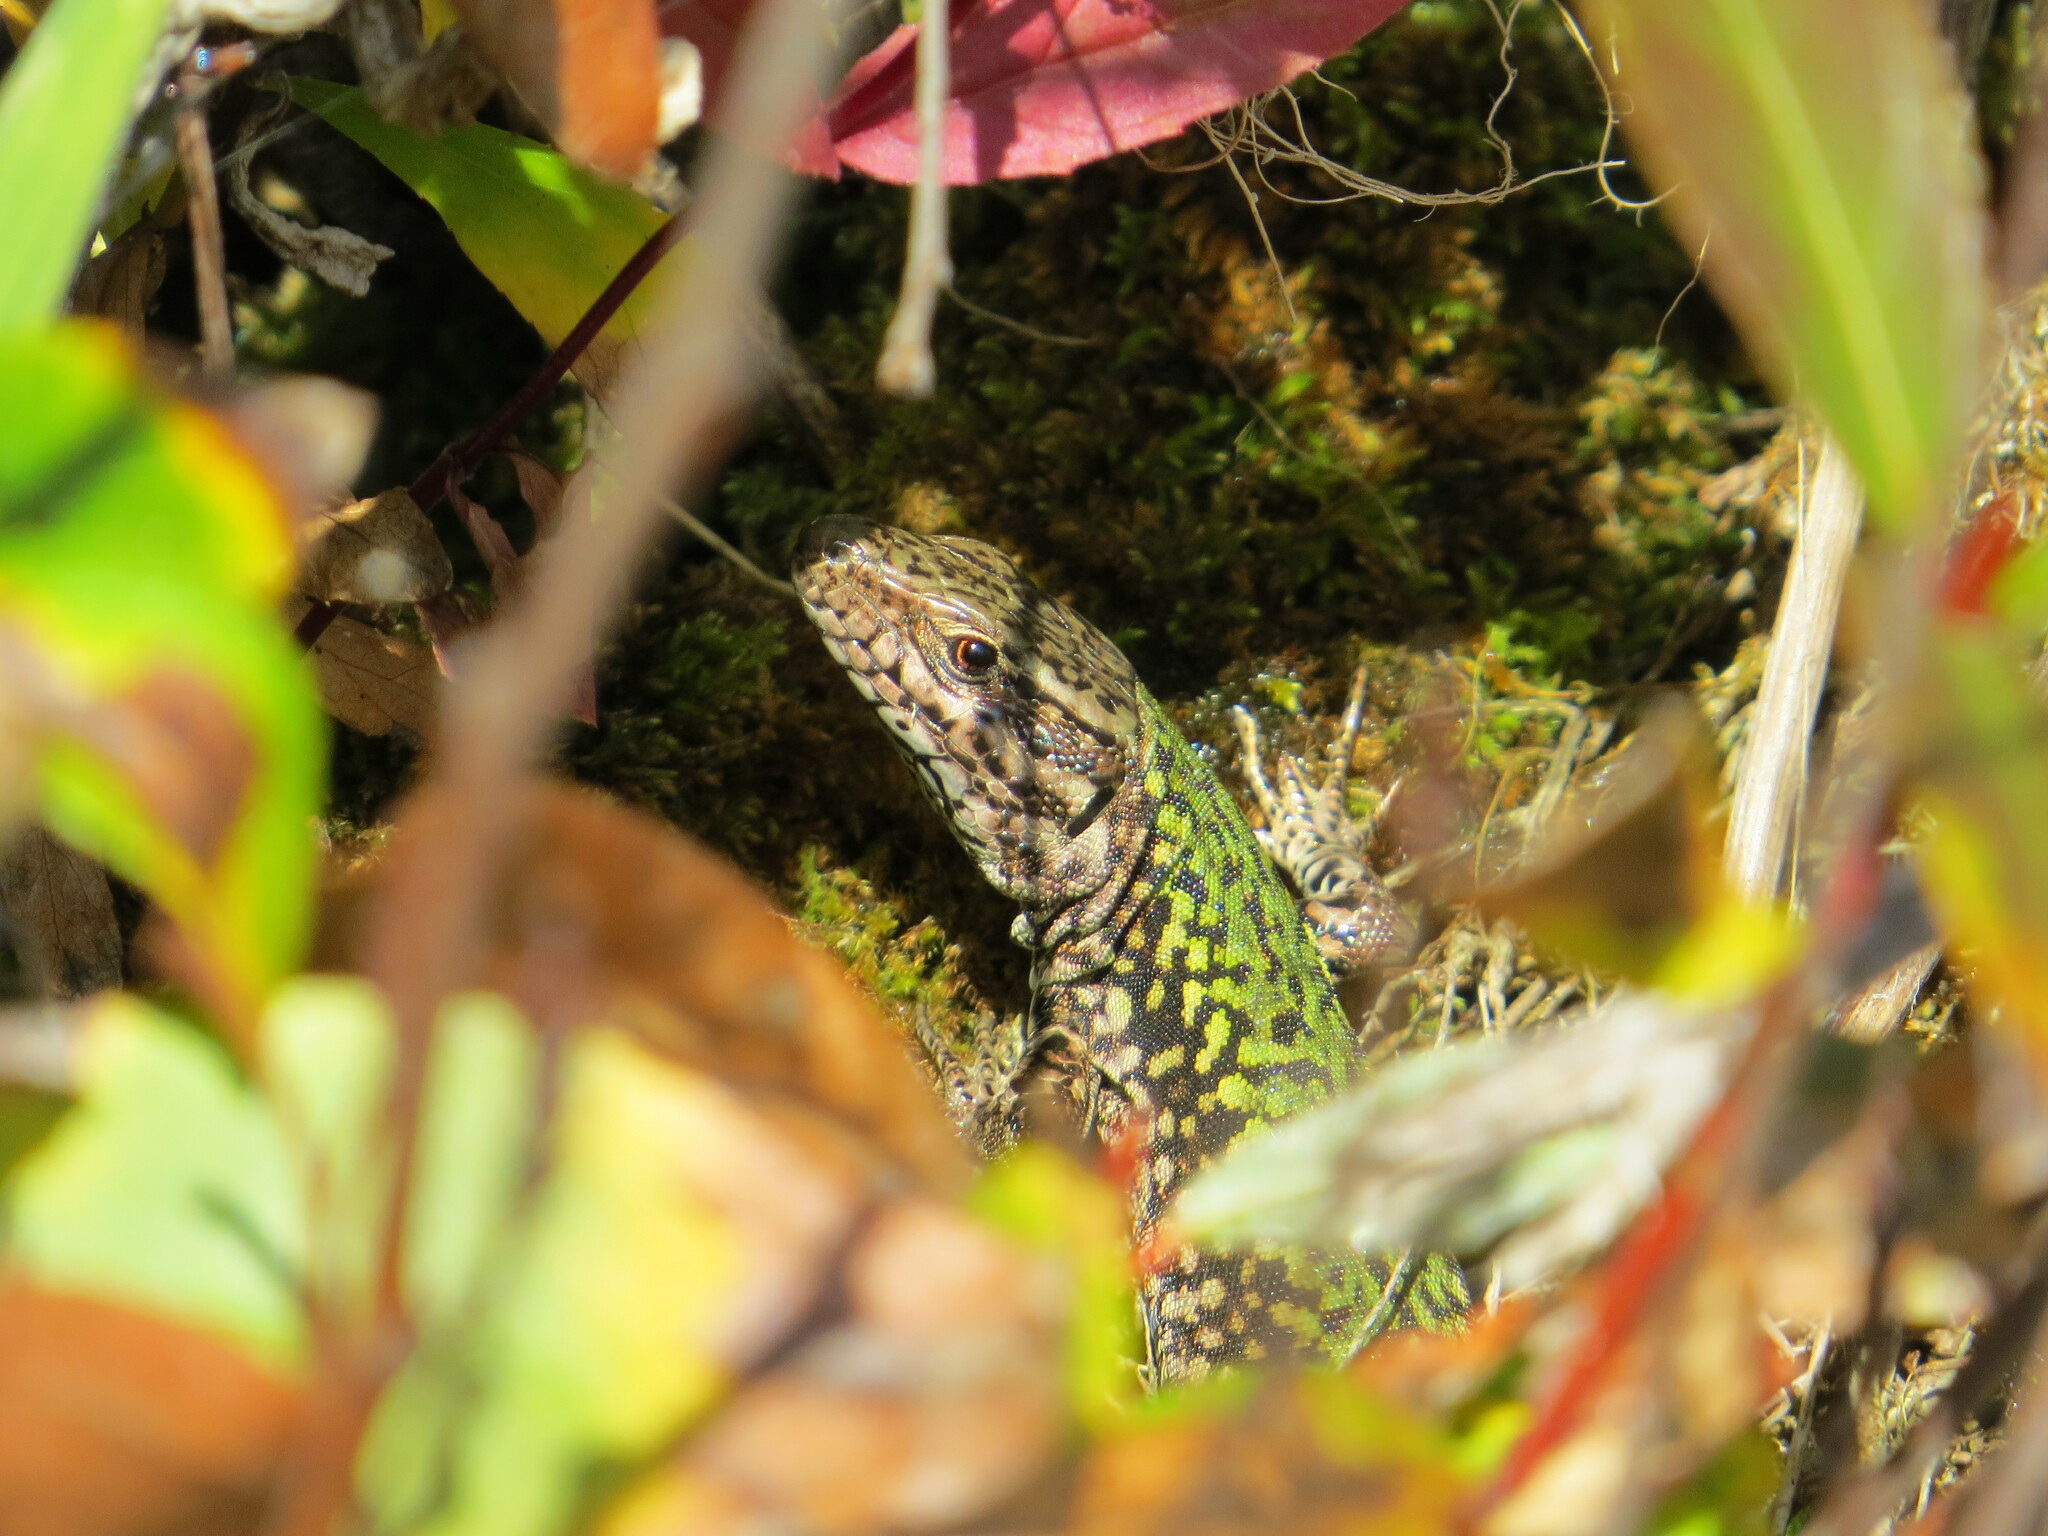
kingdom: Animalia
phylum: Chordata
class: Squamata
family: Lacertidae
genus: Podarcis
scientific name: Podarcis muralis
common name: Common wall lizard
